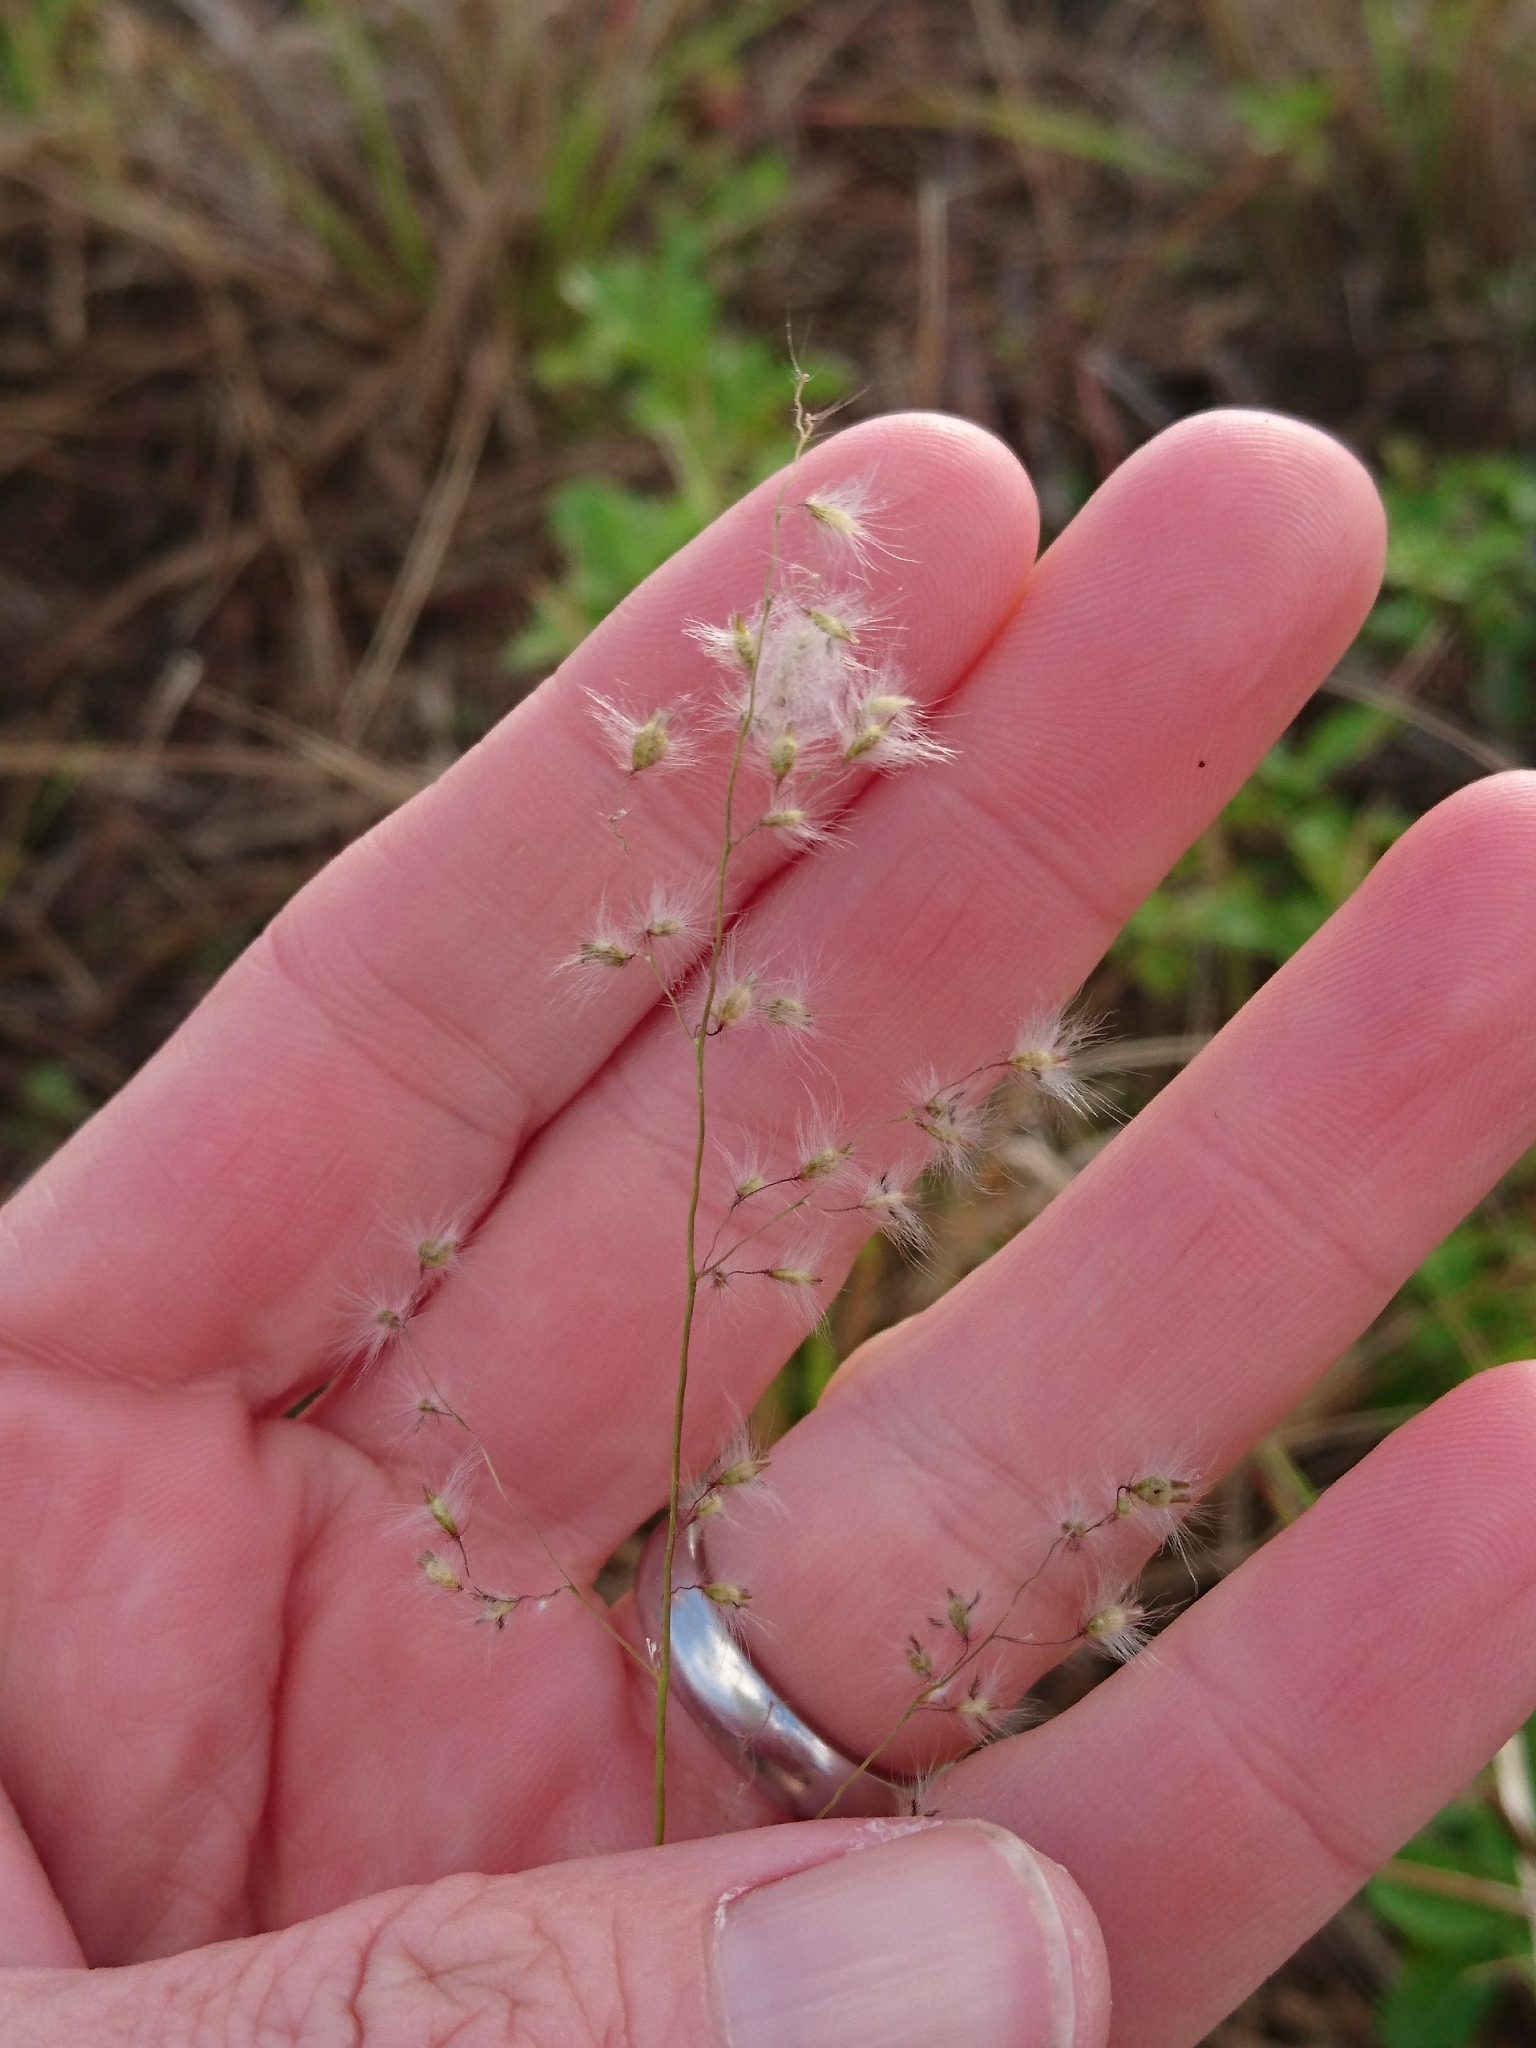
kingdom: Plantae
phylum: Tracheophyta
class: Liliopsida
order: Poales
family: Poaceae
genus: Melinis
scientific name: Melinis repens
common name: Rose natal grass
